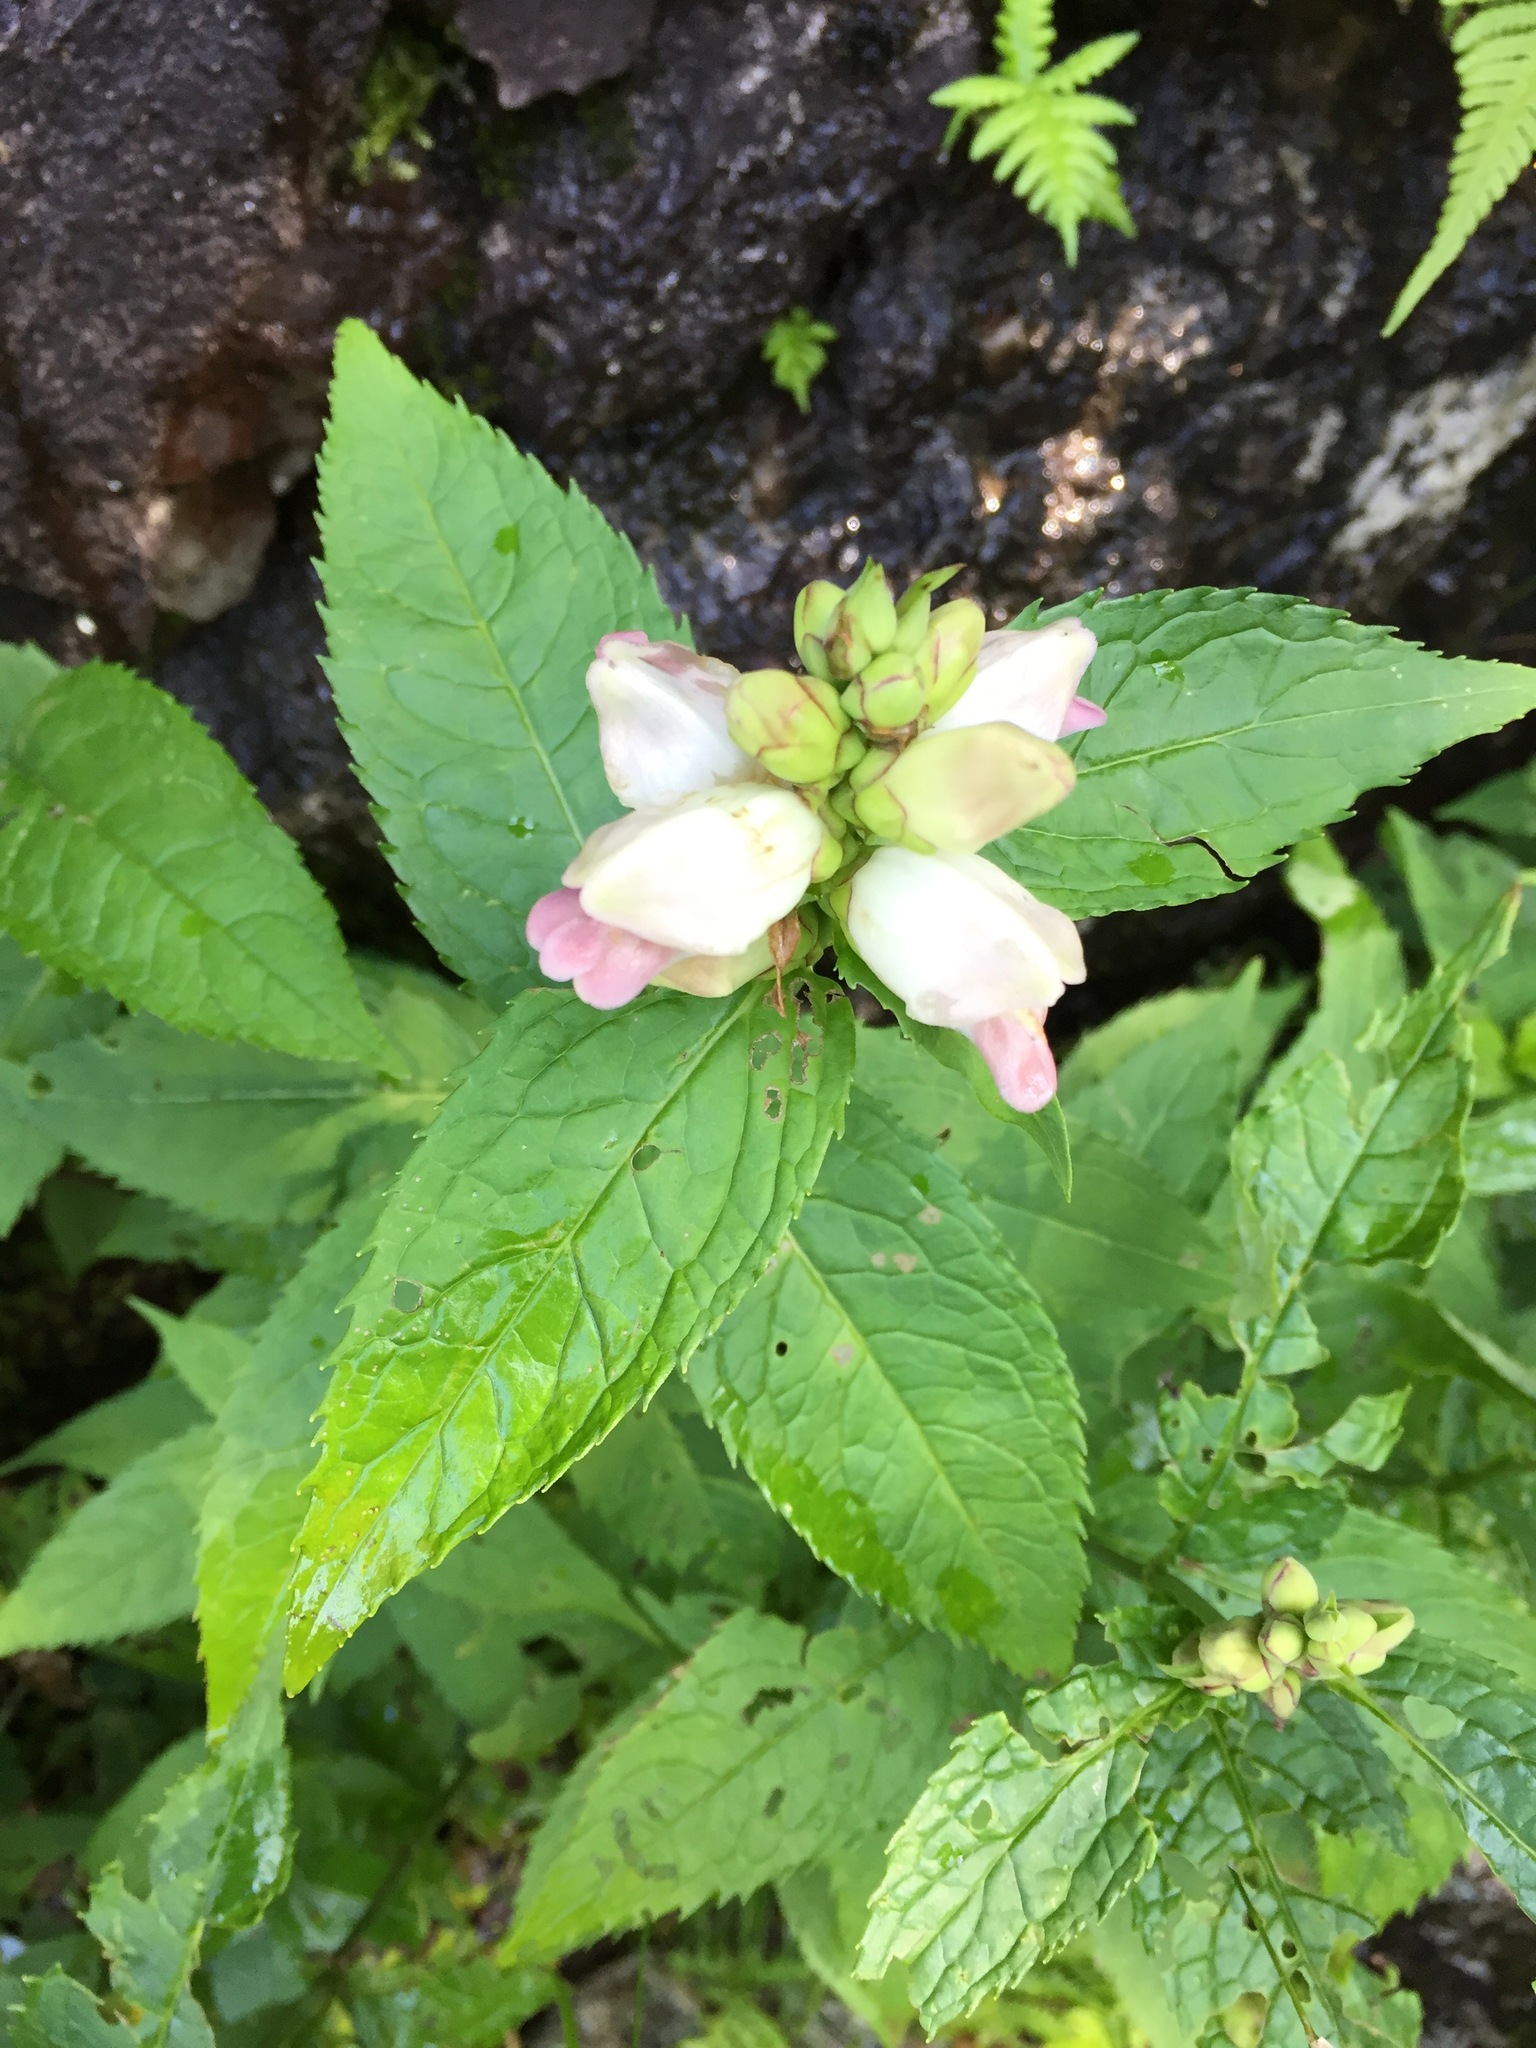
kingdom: Plantae
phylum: Tracheophyta
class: Magnoliopsida
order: Lamiales
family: Plantaginaceae
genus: Chelone
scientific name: Chelone glabra
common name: Snakehead
